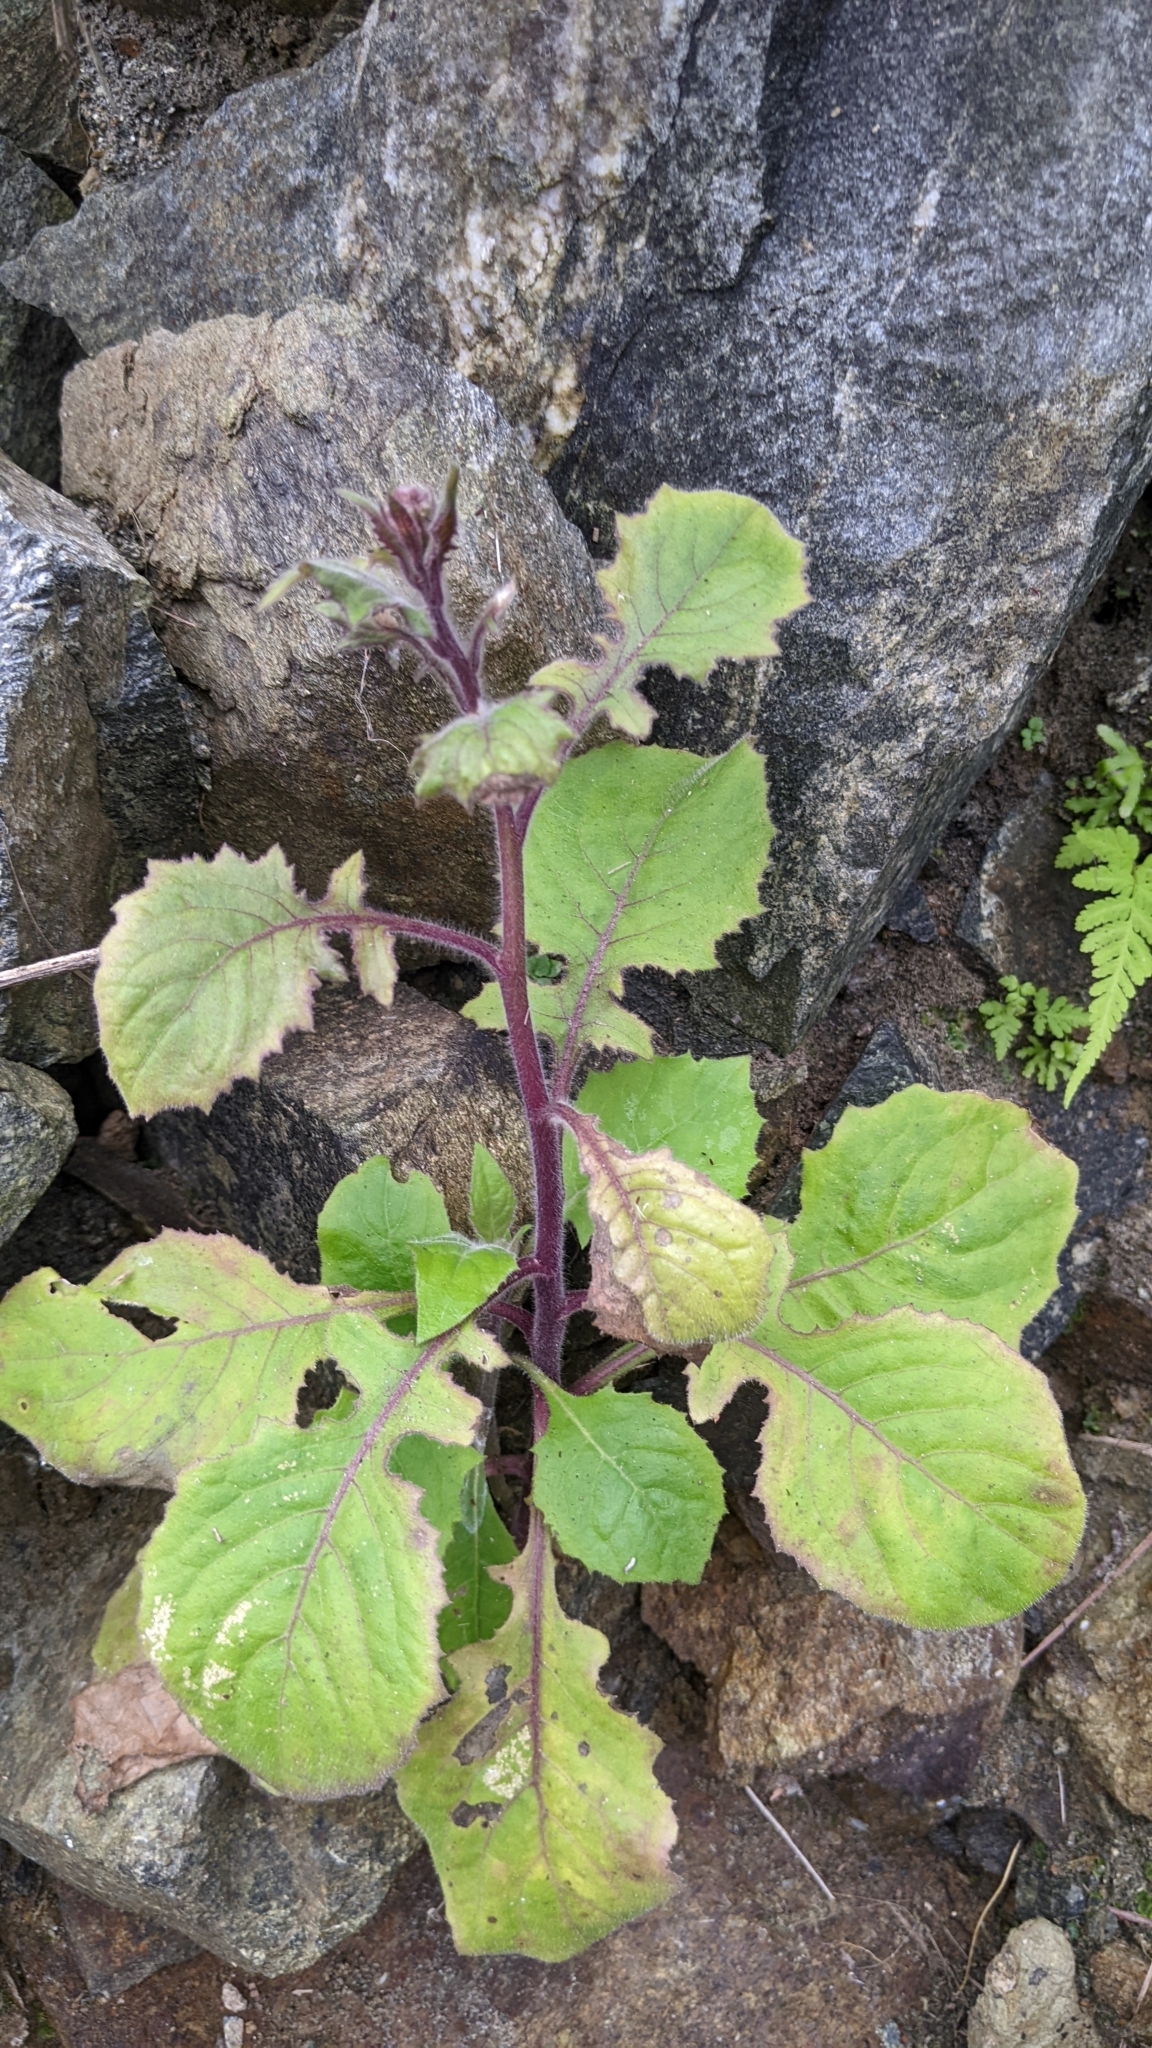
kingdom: Plantae
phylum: Tracheophyta
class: Magnoliopsida
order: Asterales
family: Asteraceae
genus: Blumea
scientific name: Blumea sinuata
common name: Cutleaf false oxtongue
